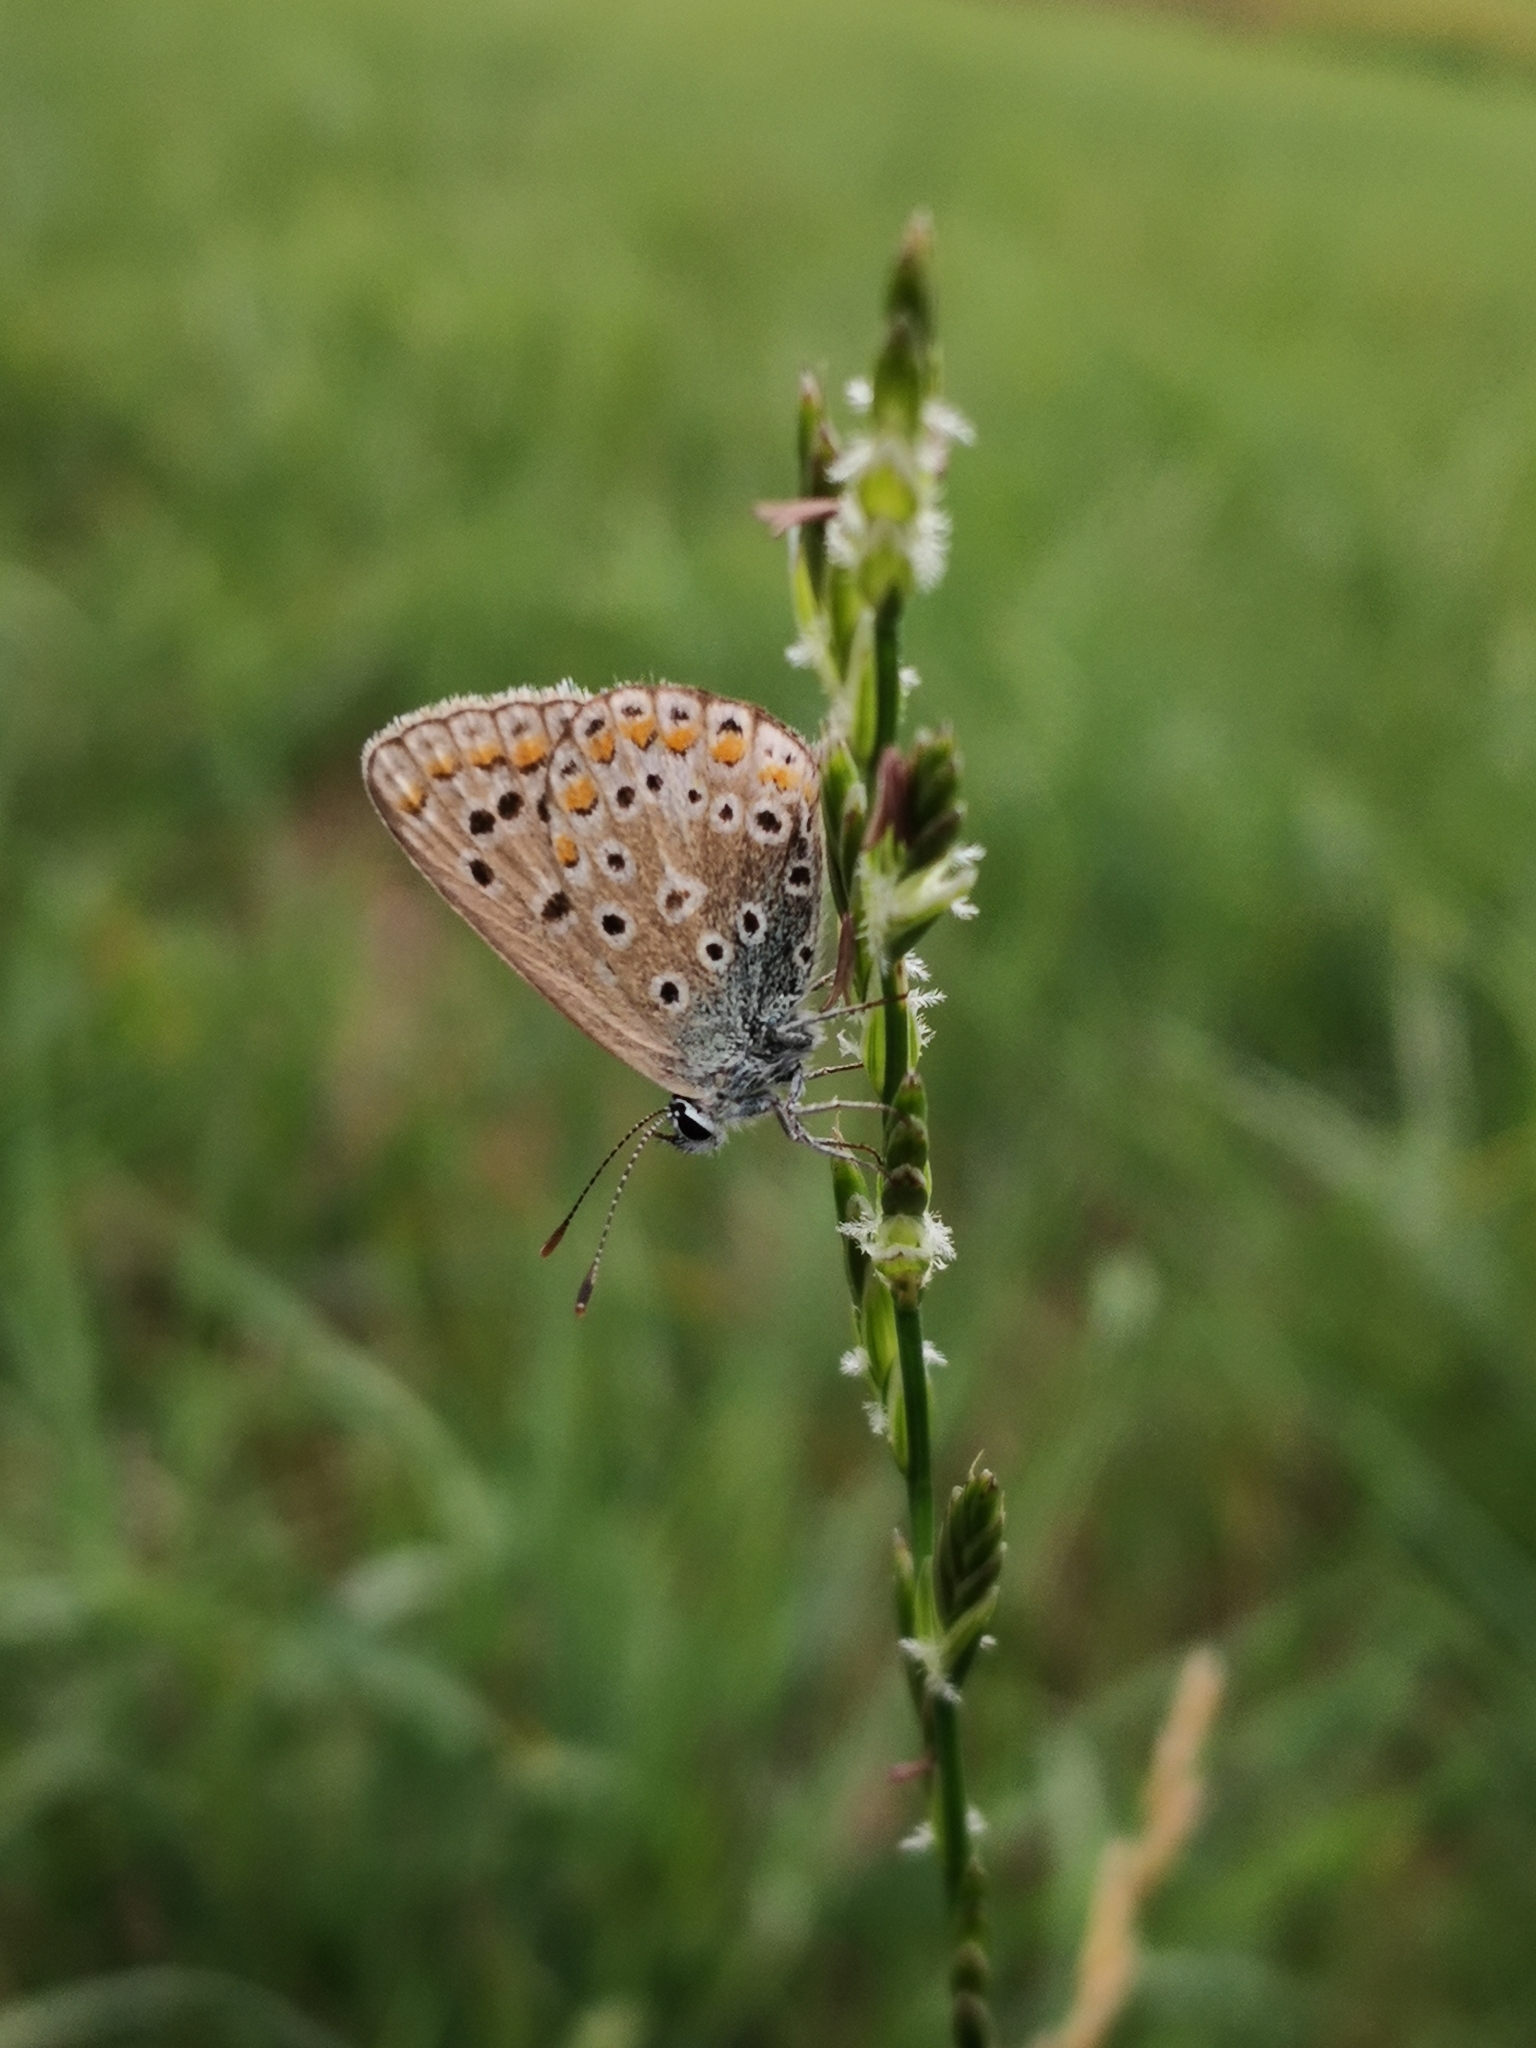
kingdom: Animalia
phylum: Arthropoda
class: Insecta
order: Lepidoptera
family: Lycaenidae
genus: Polyommatus
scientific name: Polyommatus icarus
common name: Common blue
